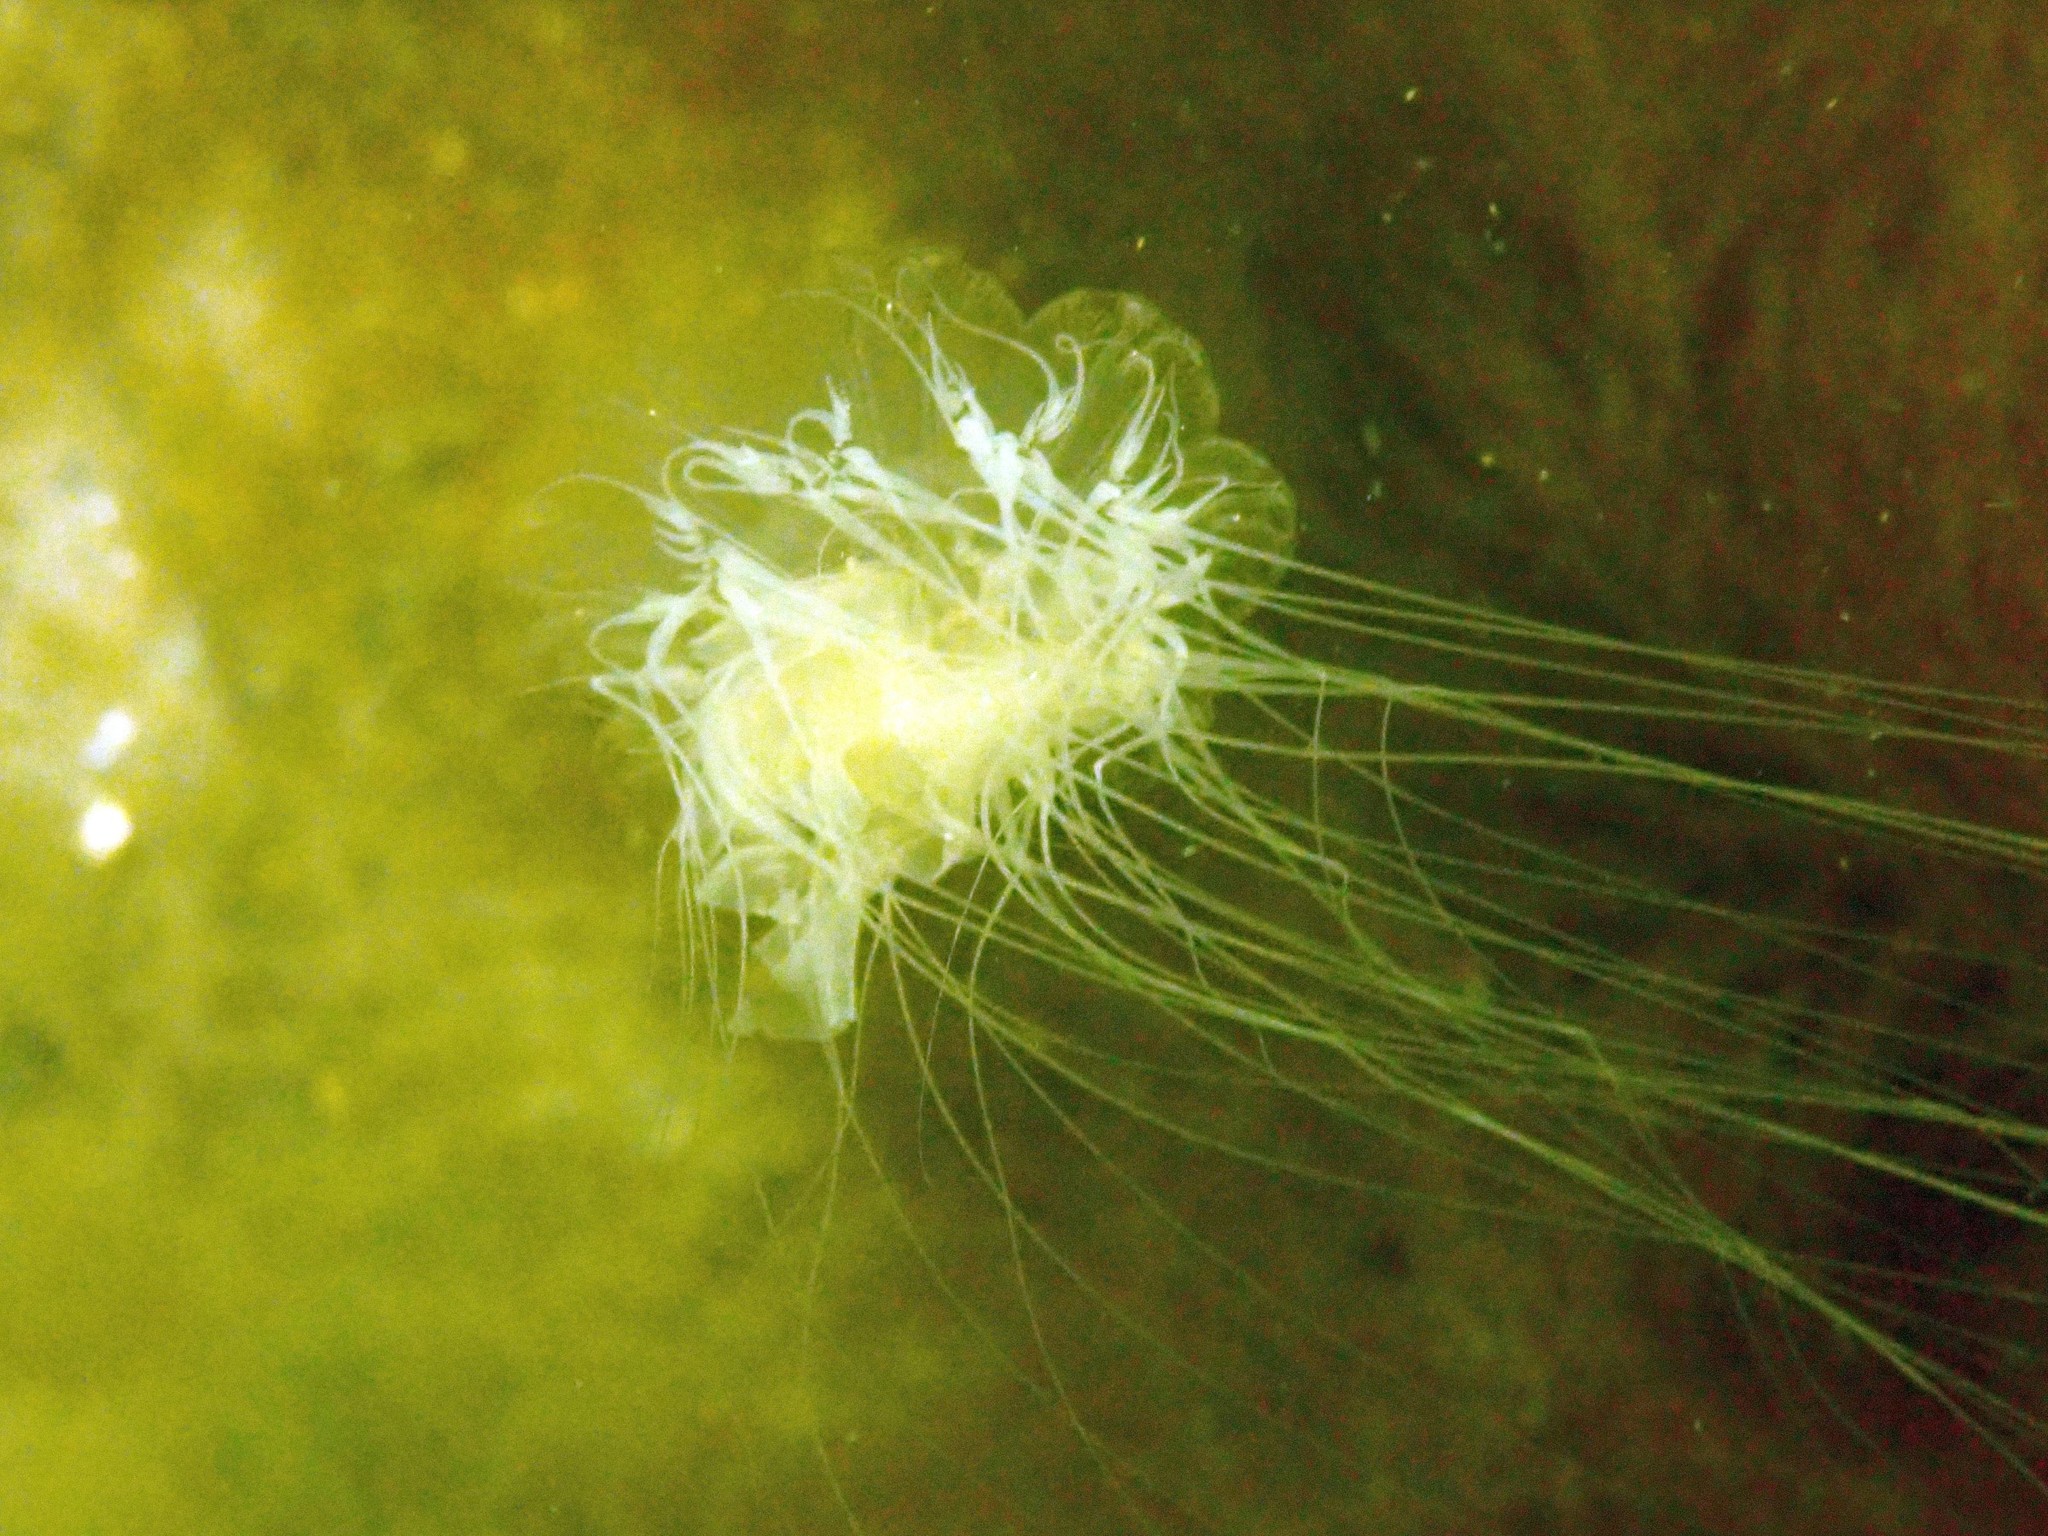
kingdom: Animalia
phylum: Cnidaria
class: Scyphozoa
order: Semaeostomeae
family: Cyaneidae
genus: Cyanea
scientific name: Cyanea capillata
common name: Lion's mane jellyfish
